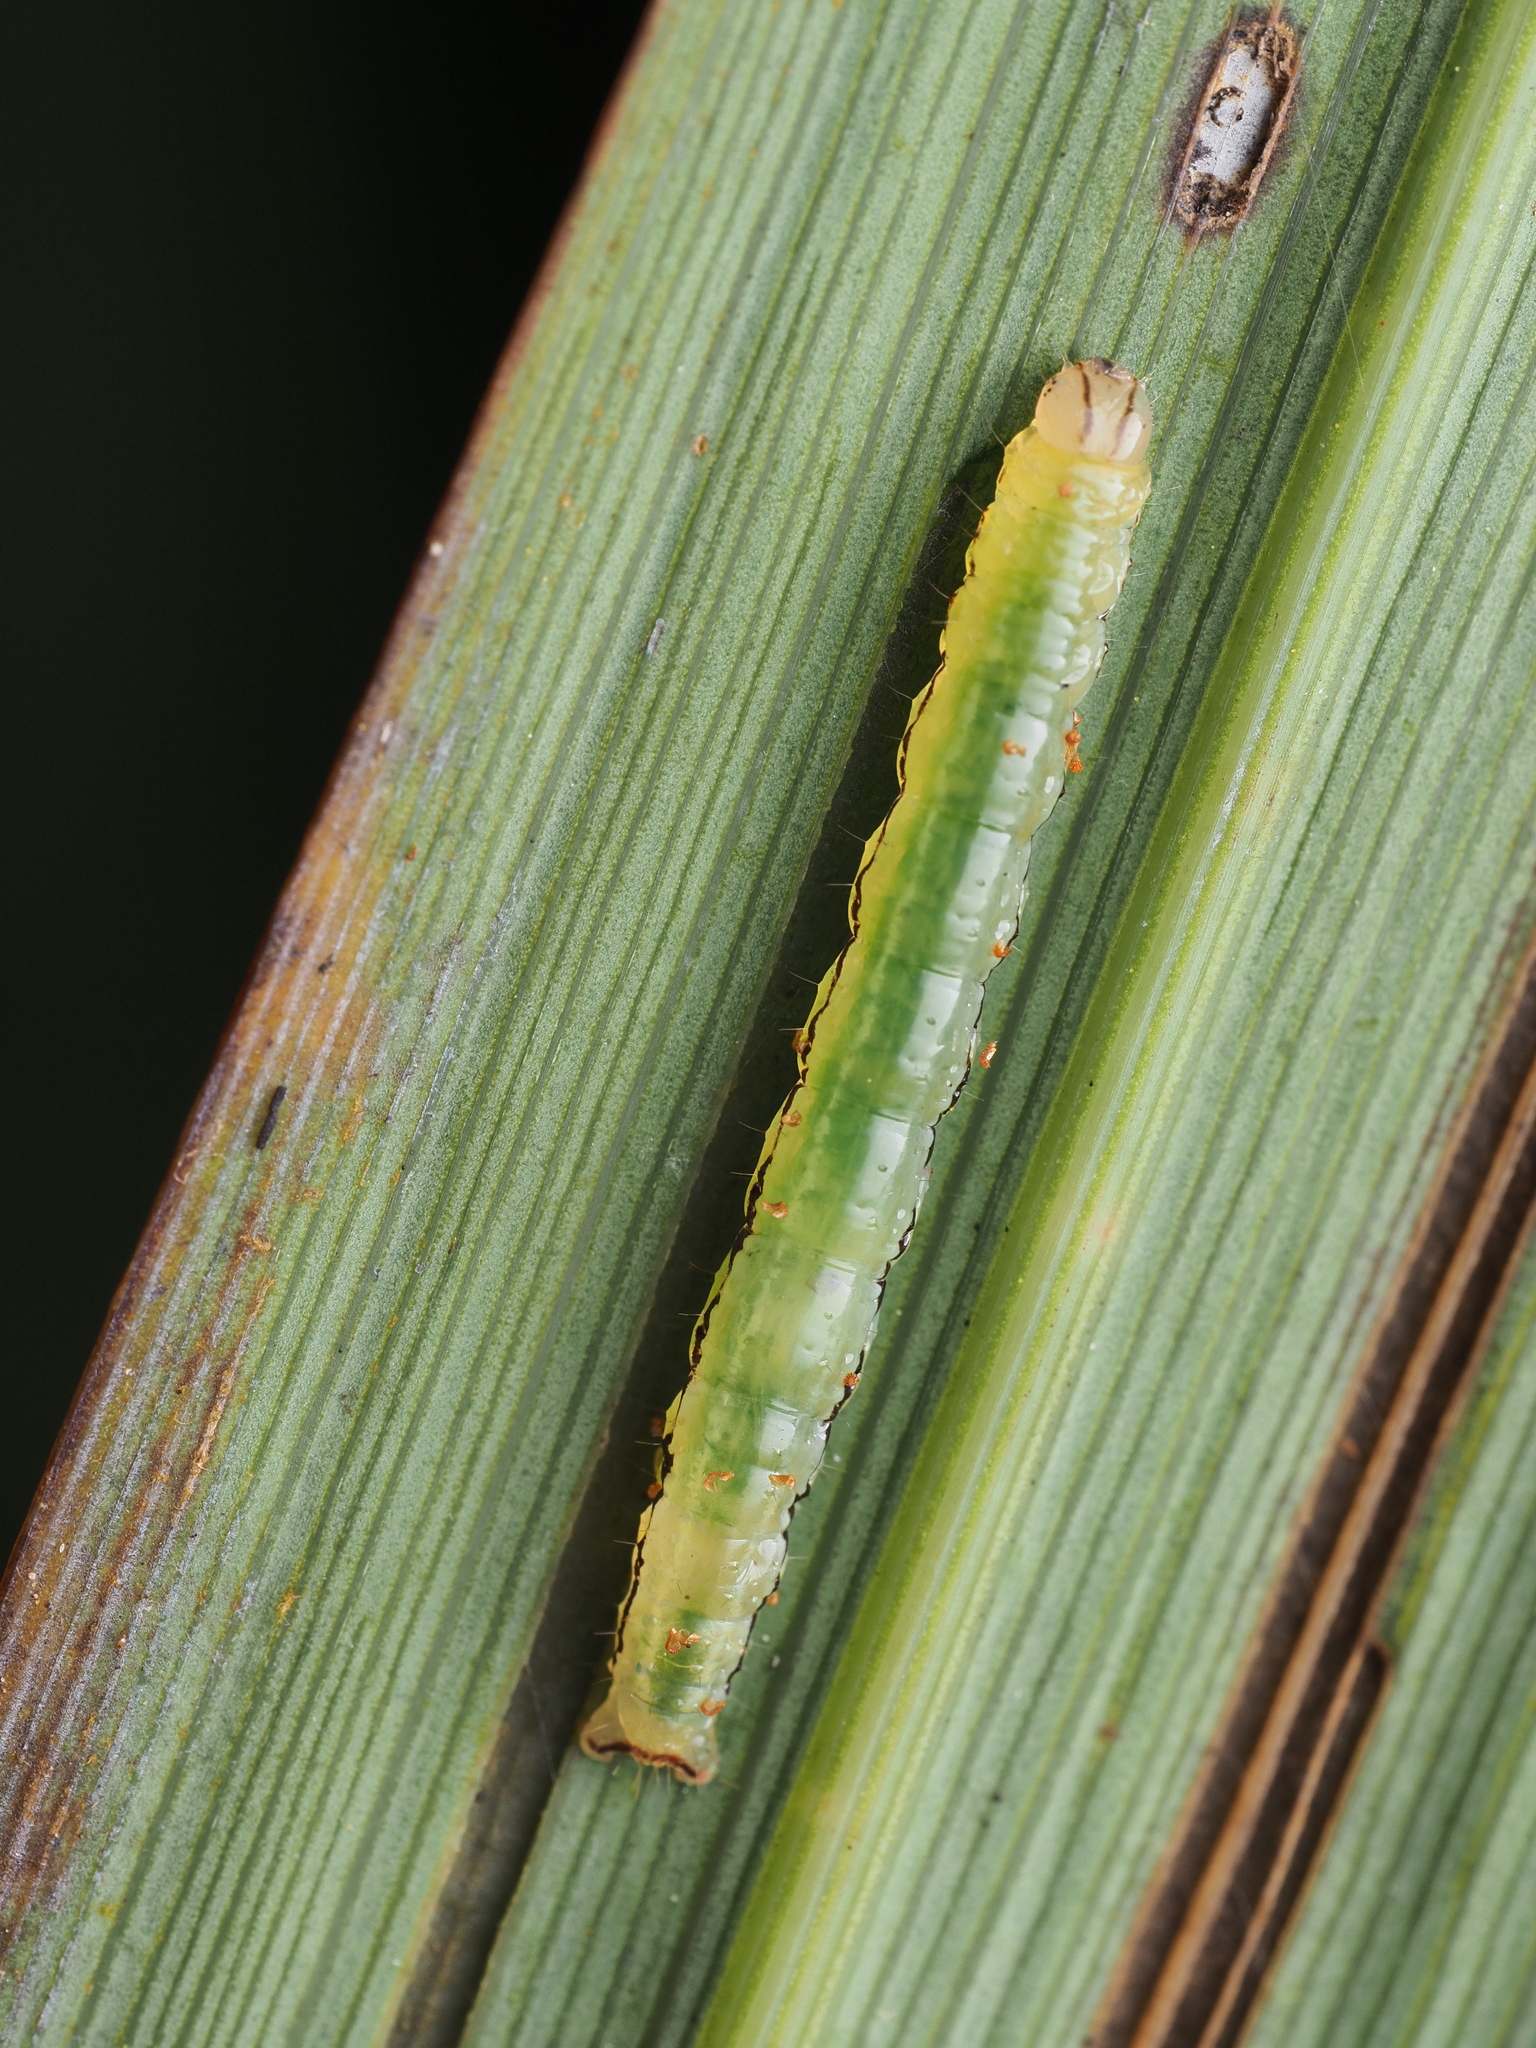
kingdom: Animalia
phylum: Arthropoda
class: Insecta
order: Lepidoptera
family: Geometridae
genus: Epiphryne
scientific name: Epiphryne verriculata
